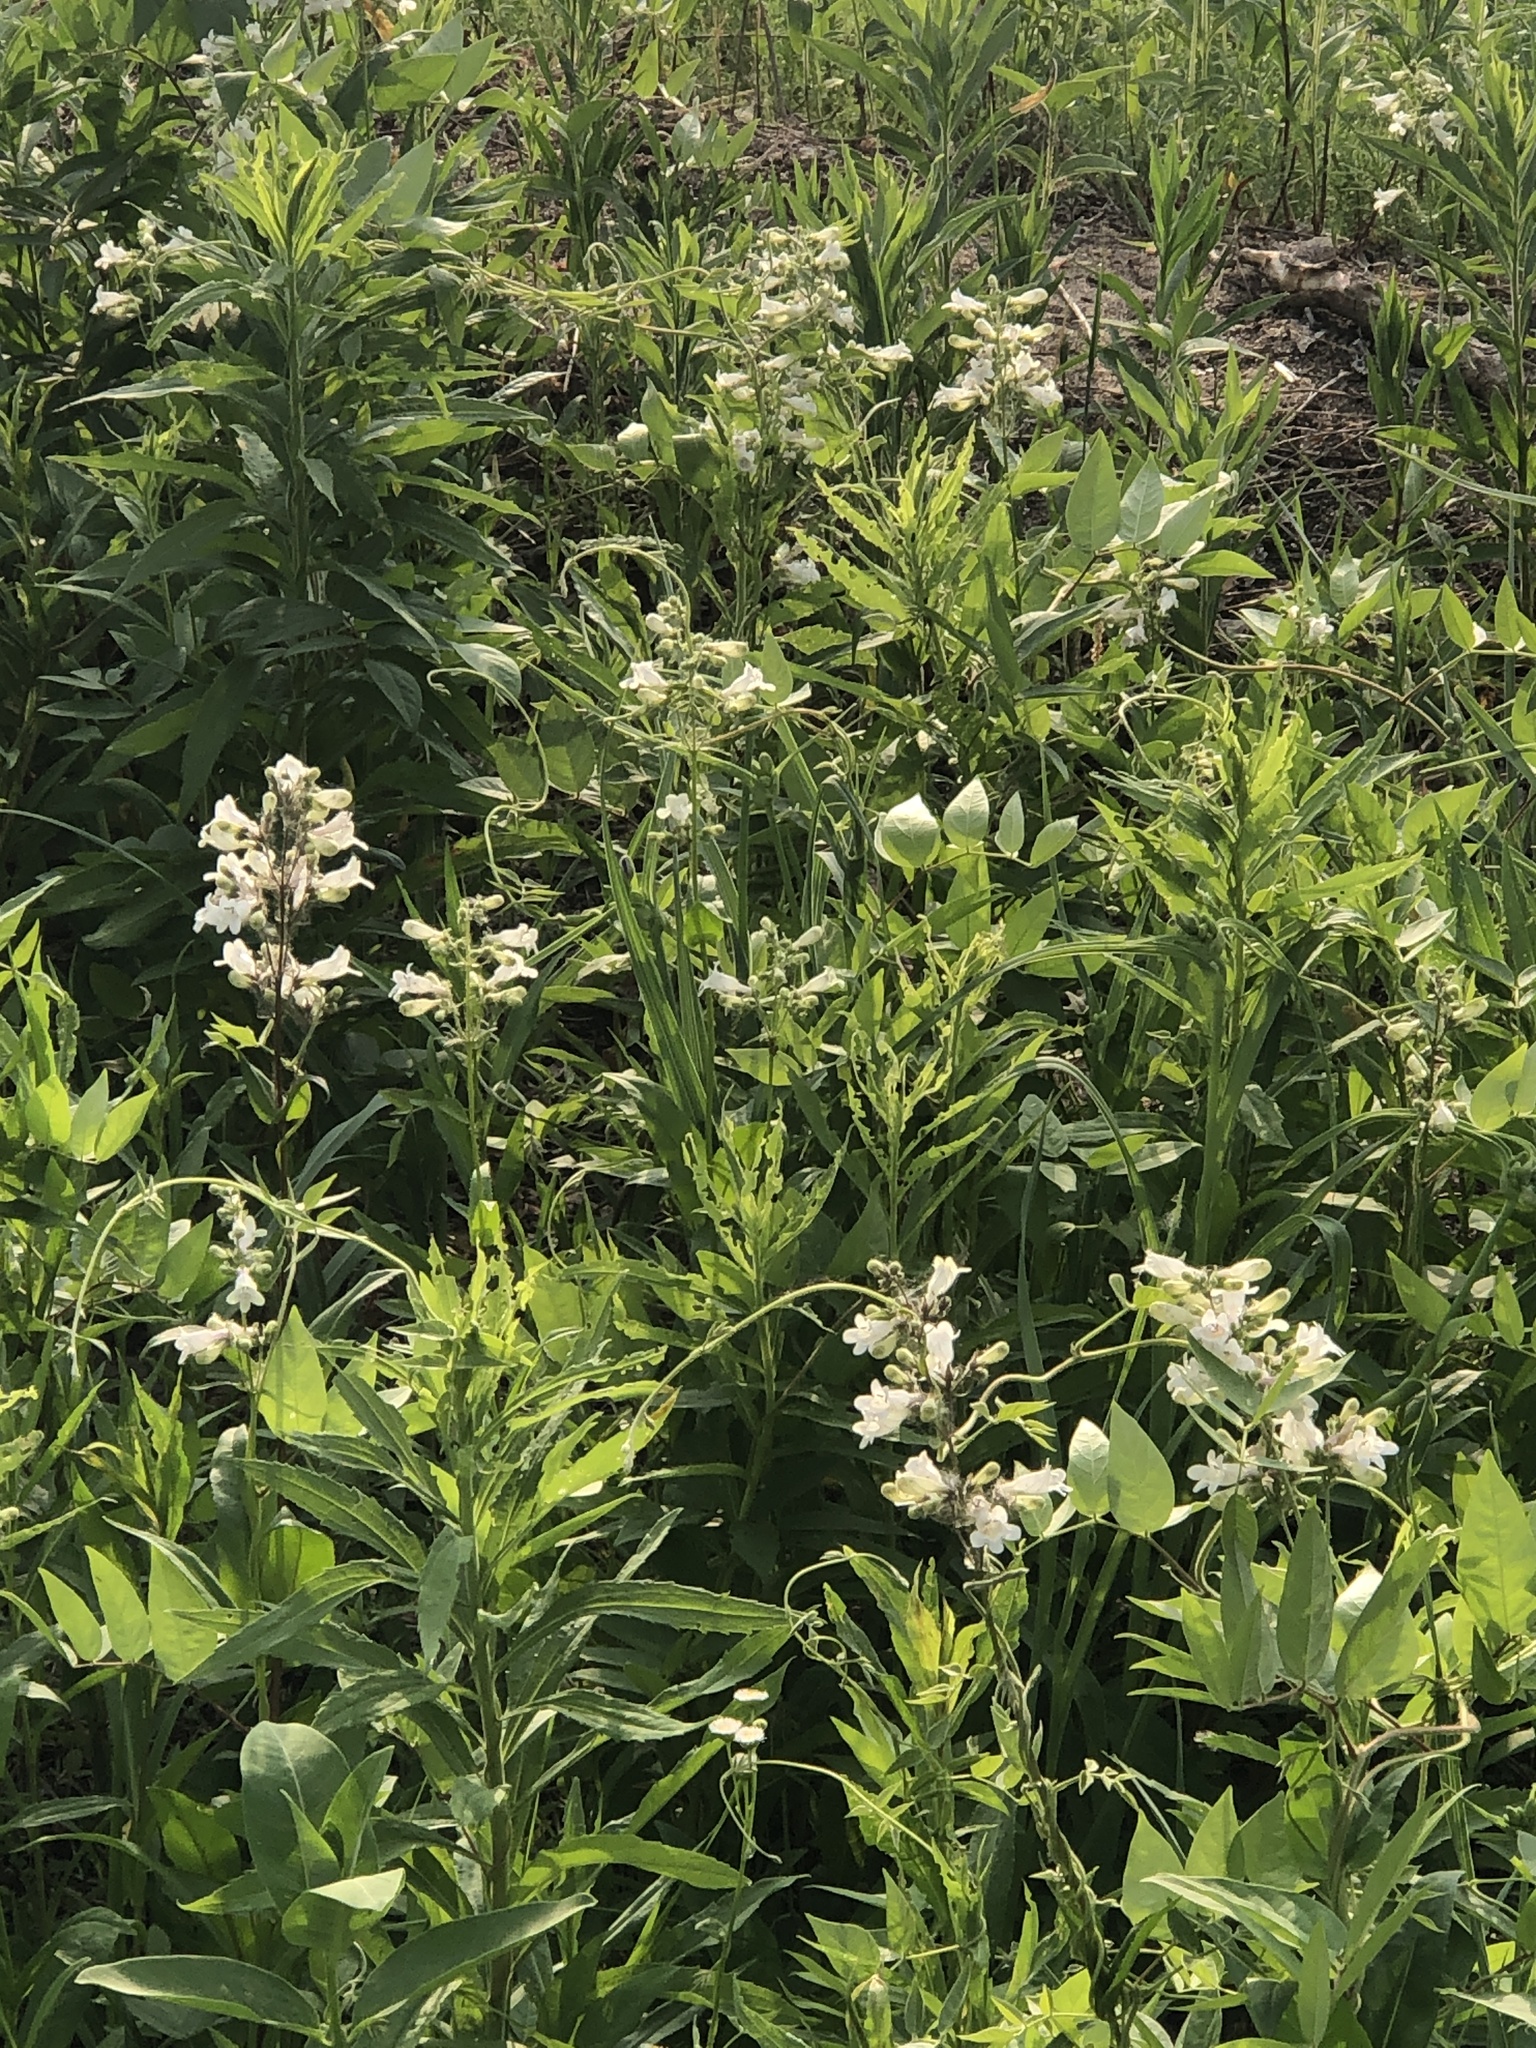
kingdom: Plantae
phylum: Tracheophyta
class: Magnoliopsida
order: Lamiales
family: Plantaginaceae
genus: Penstemon
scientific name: Penstemon digitalis
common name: Foxglove beardtongue
